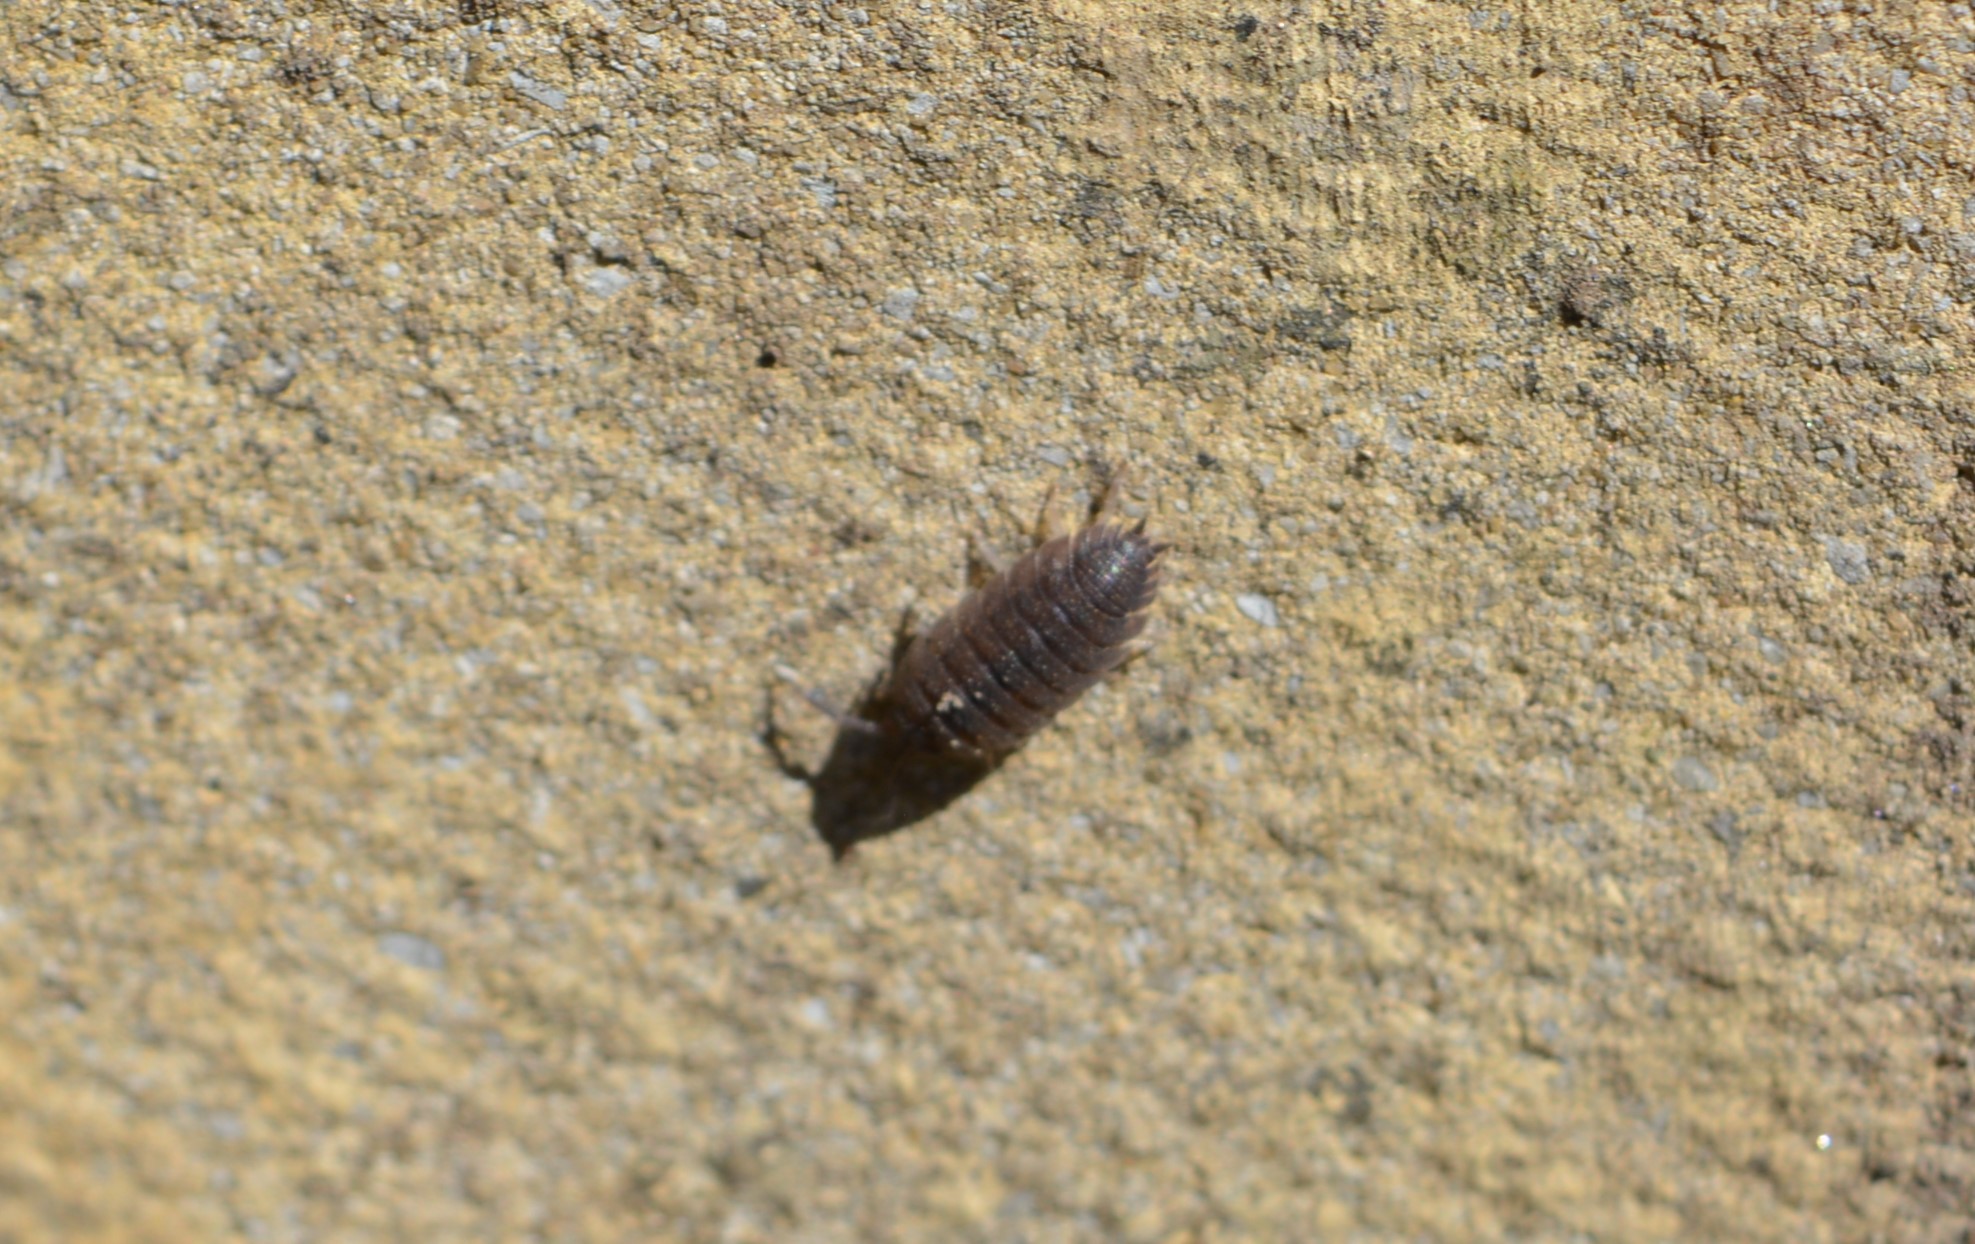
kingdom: Animalia
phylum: Arthropoda
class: Malacostraca
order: Isopoda
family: Porcellionidae
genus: Porcellio
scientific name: Porcellio scaber
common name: Common rough woodlouse
